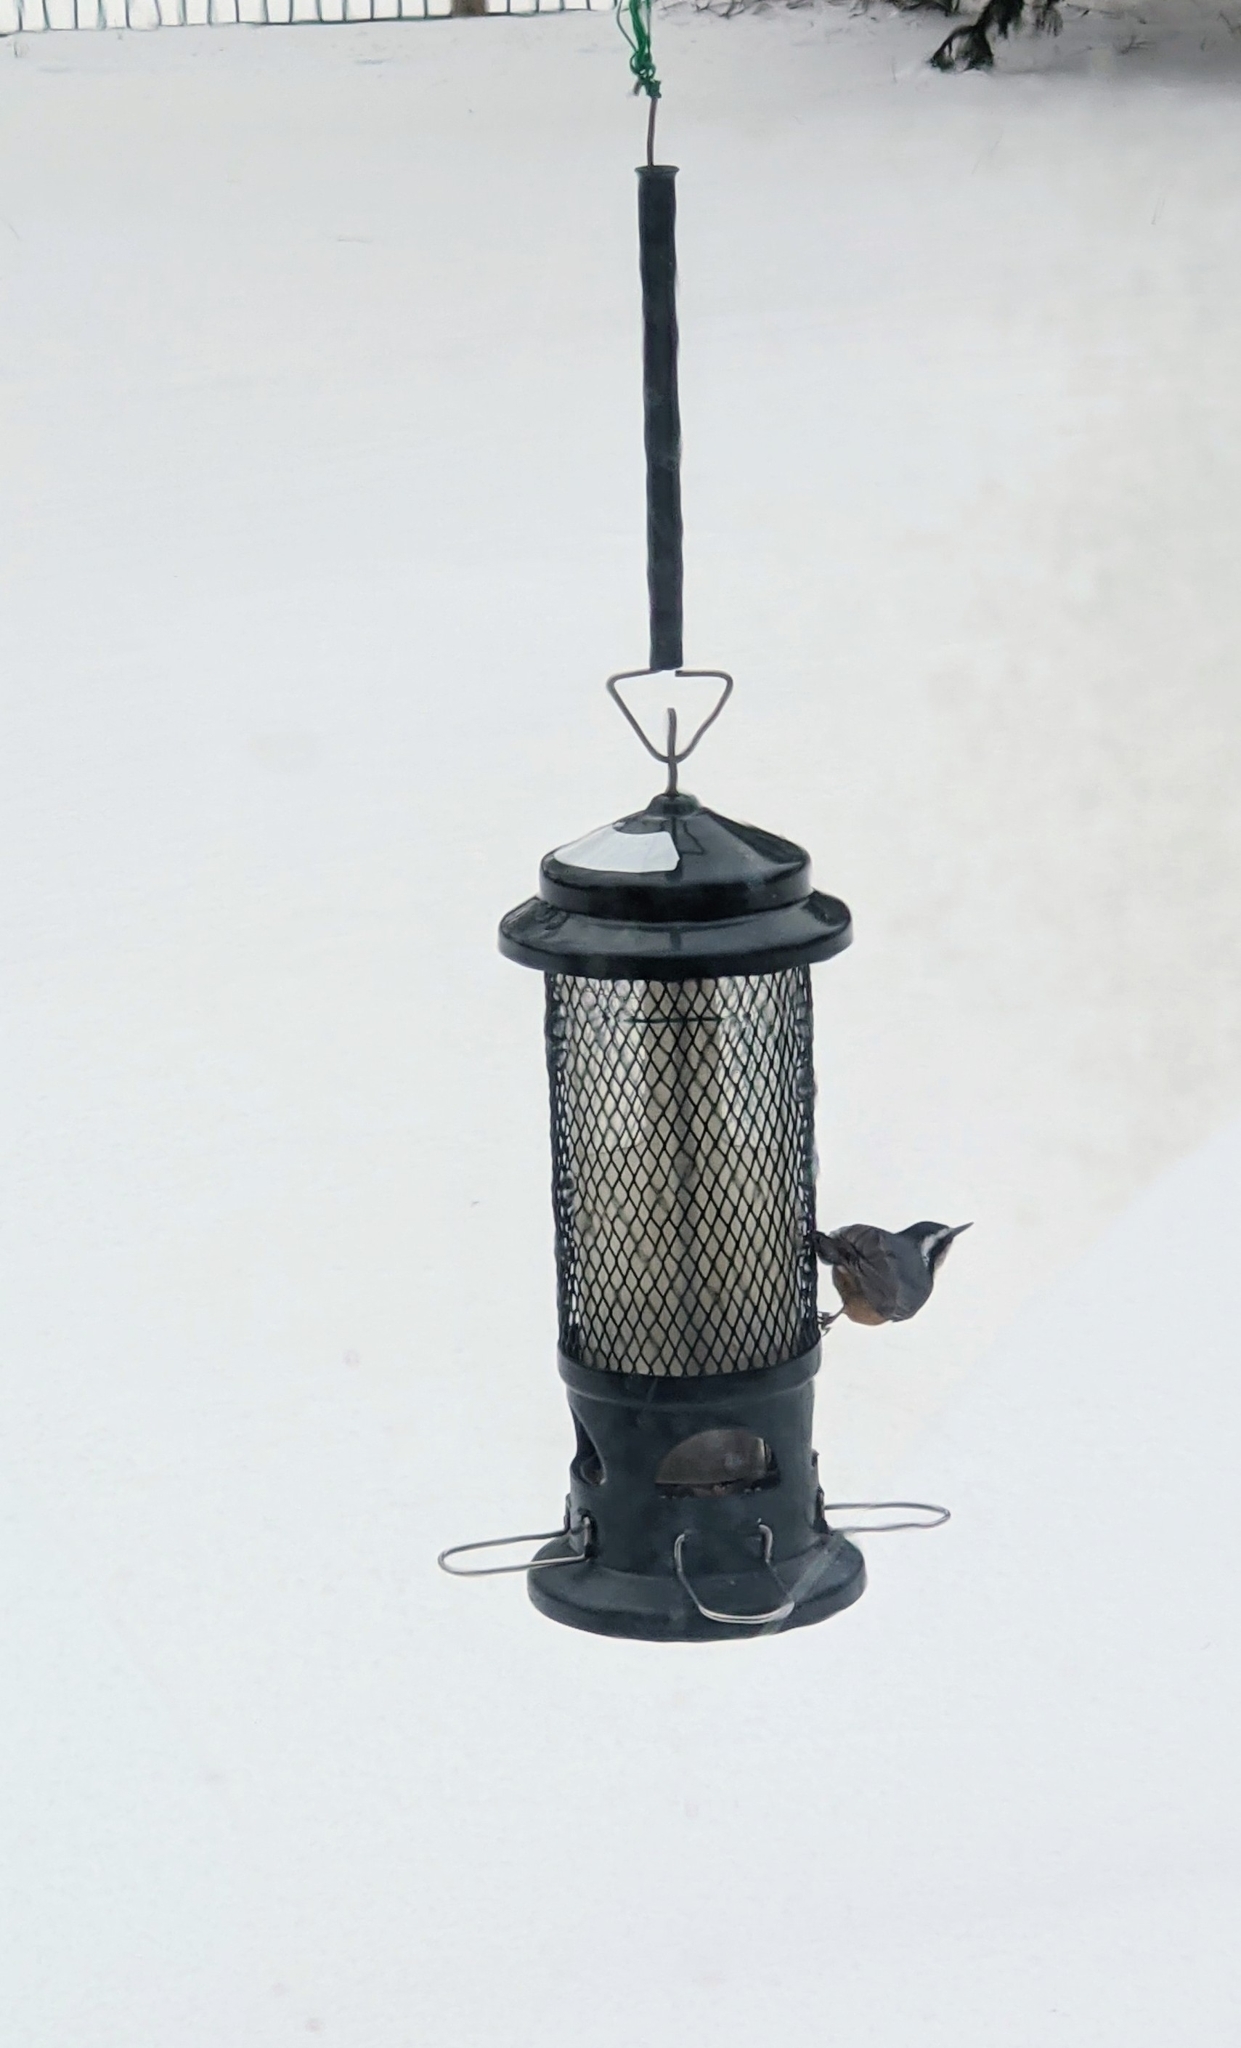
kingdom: Animalia
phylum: Chordata
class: Aves
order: Passeriformes
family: Sittidae
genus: Sitta
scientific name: Sitta canadensis
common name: Red-breasted nuthatch
